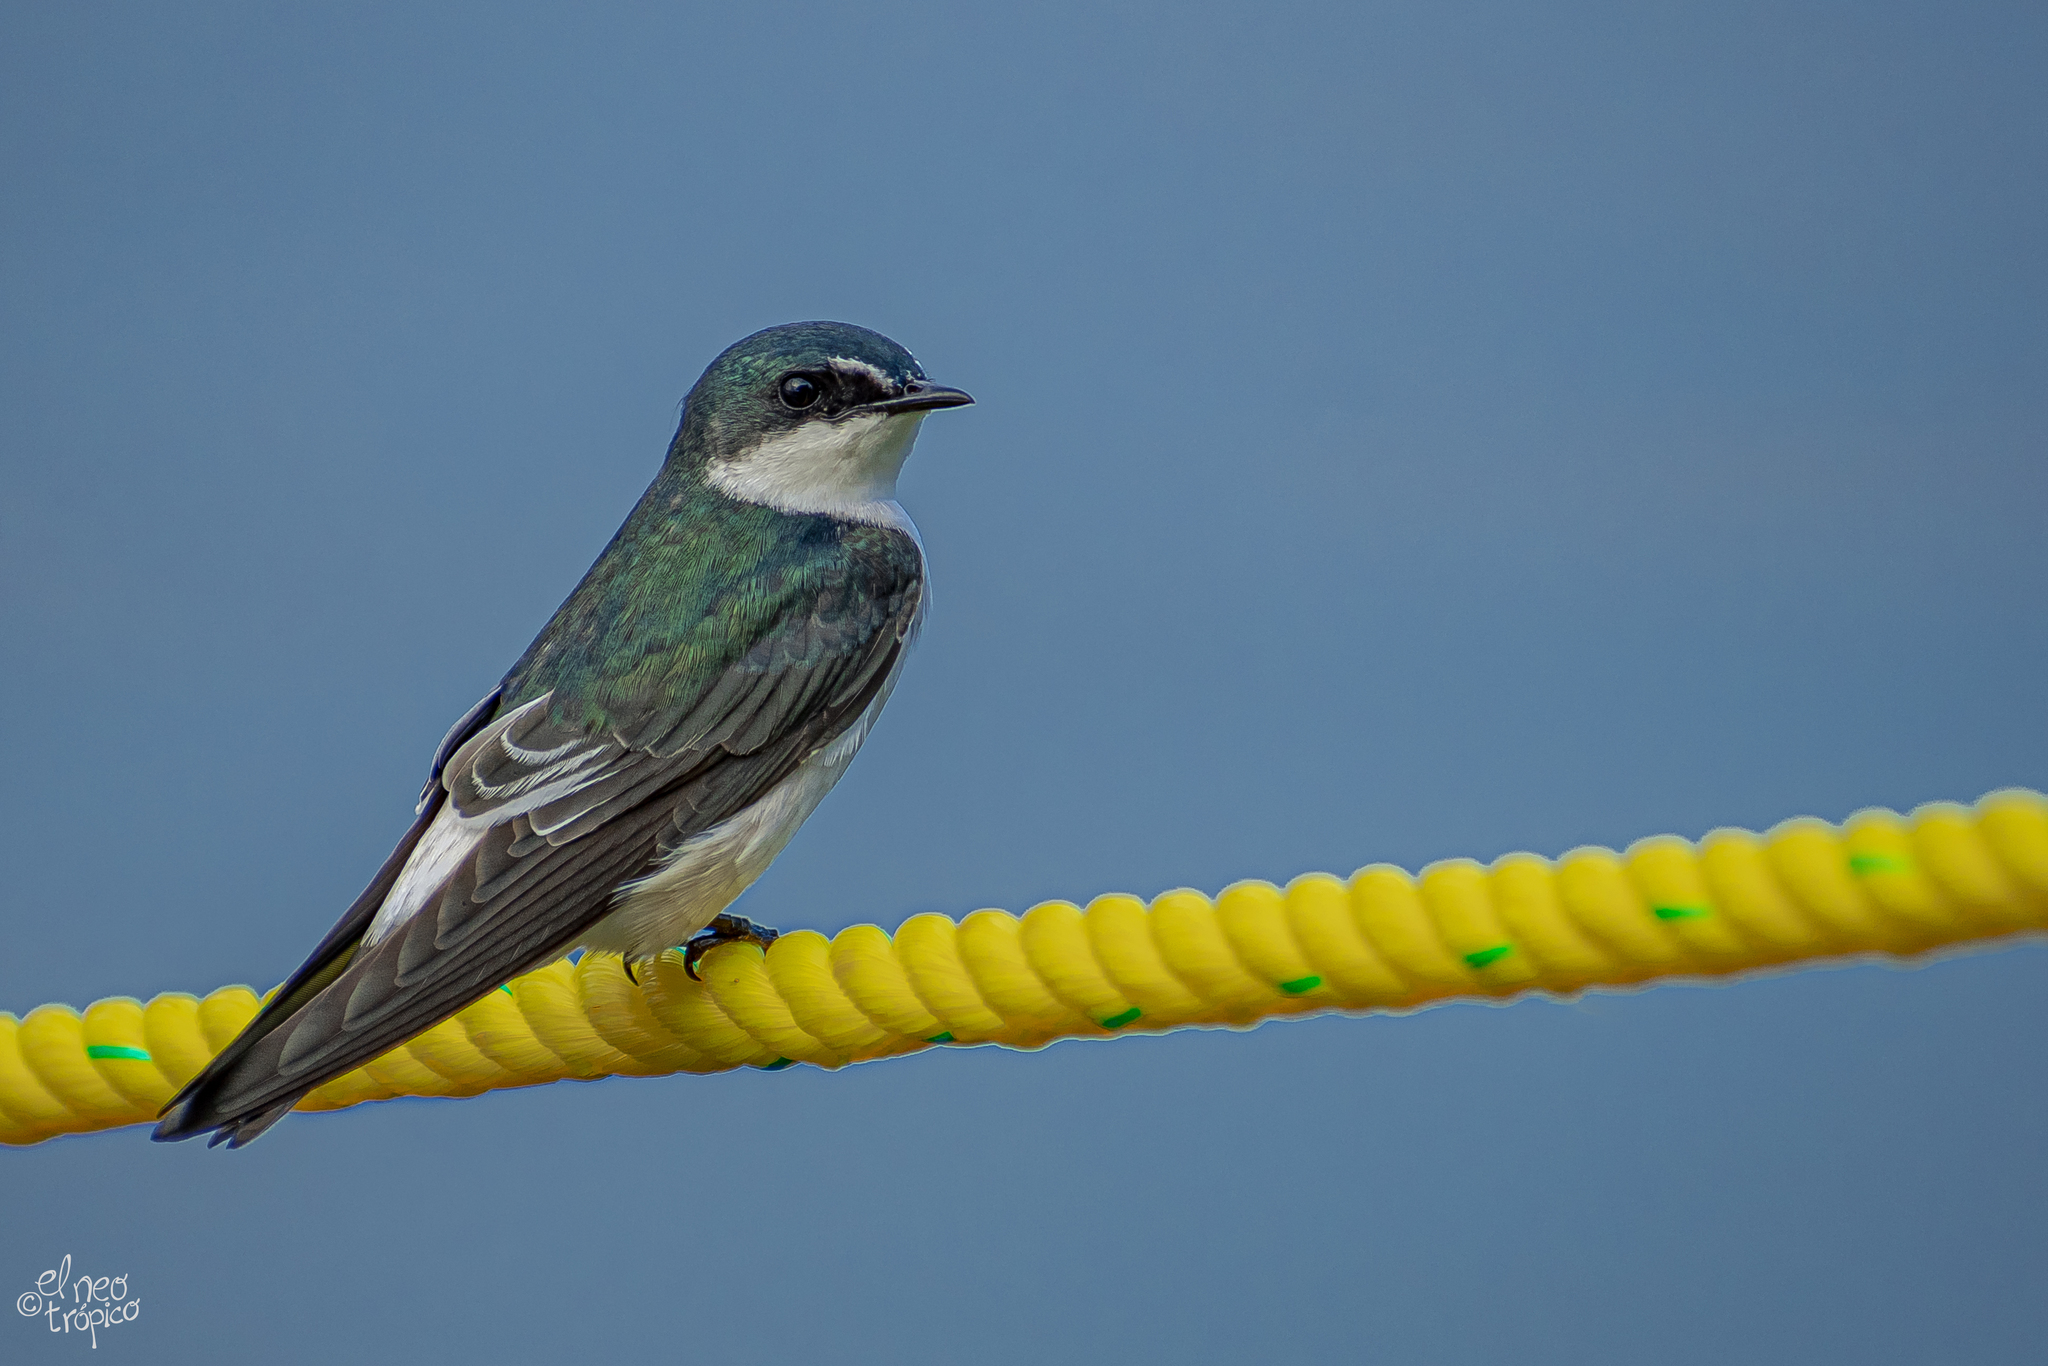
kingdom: Animalia
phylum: Chordata
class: Aves
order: Passeriformes
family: Hirundinidae
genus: Tachycineta
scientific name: Tachycineta albilinea
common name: Mangrove swallow
